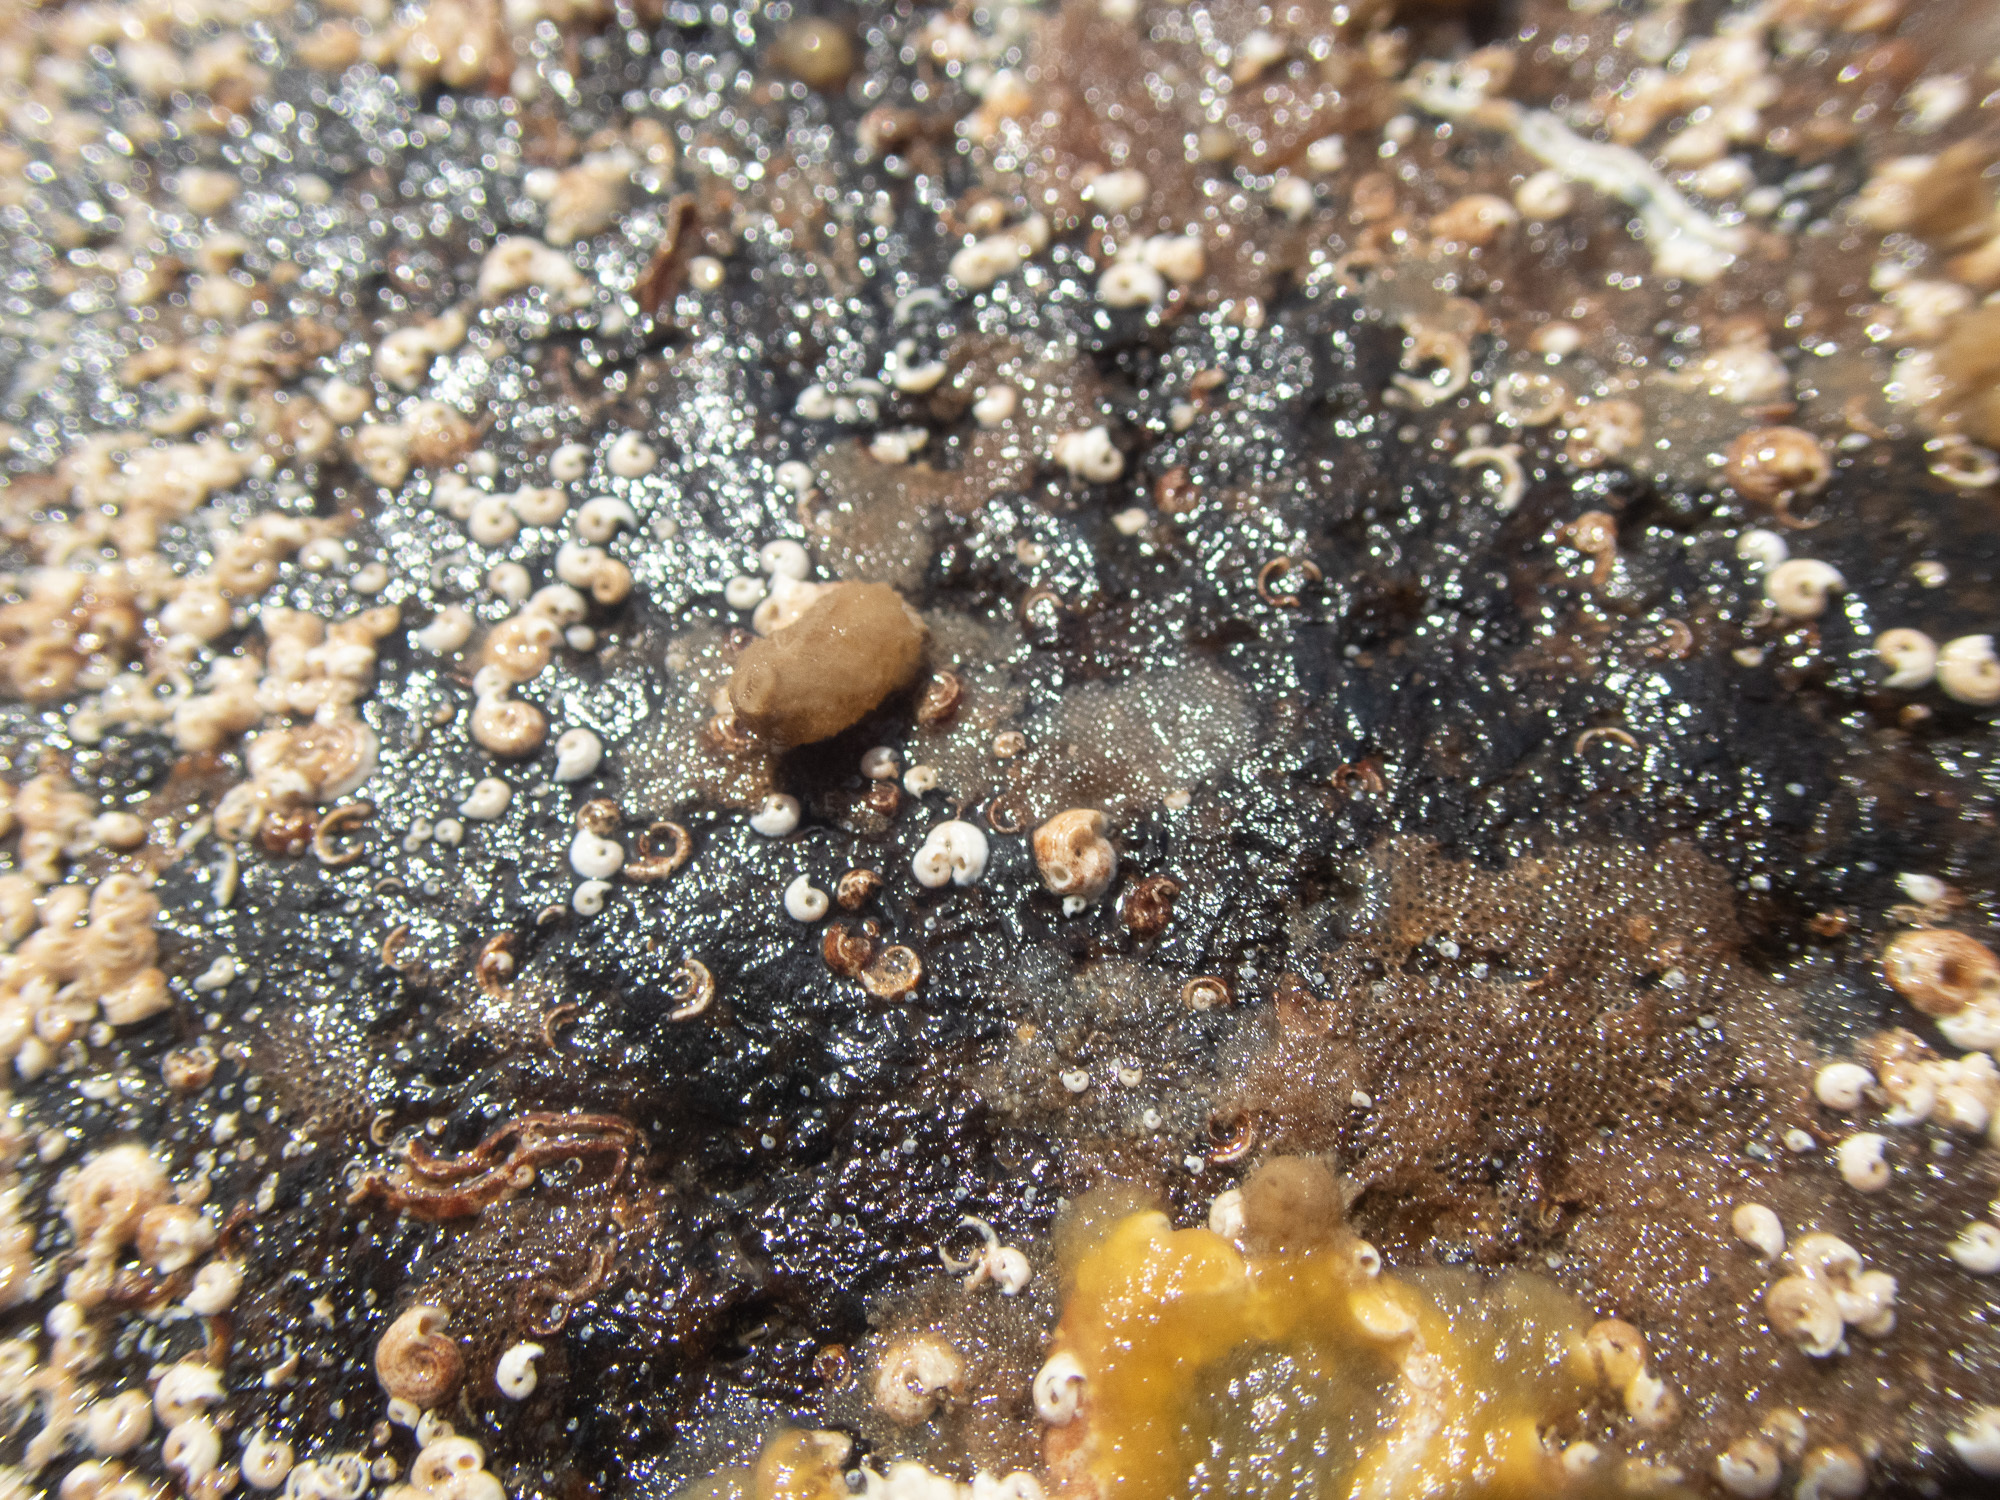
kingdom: Animalia
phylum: Porifera
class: Calcarea
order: Leucosolenida
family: Syconidae
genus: Sycon
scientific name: Sycon ciliatum
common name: Ciliated sponge
